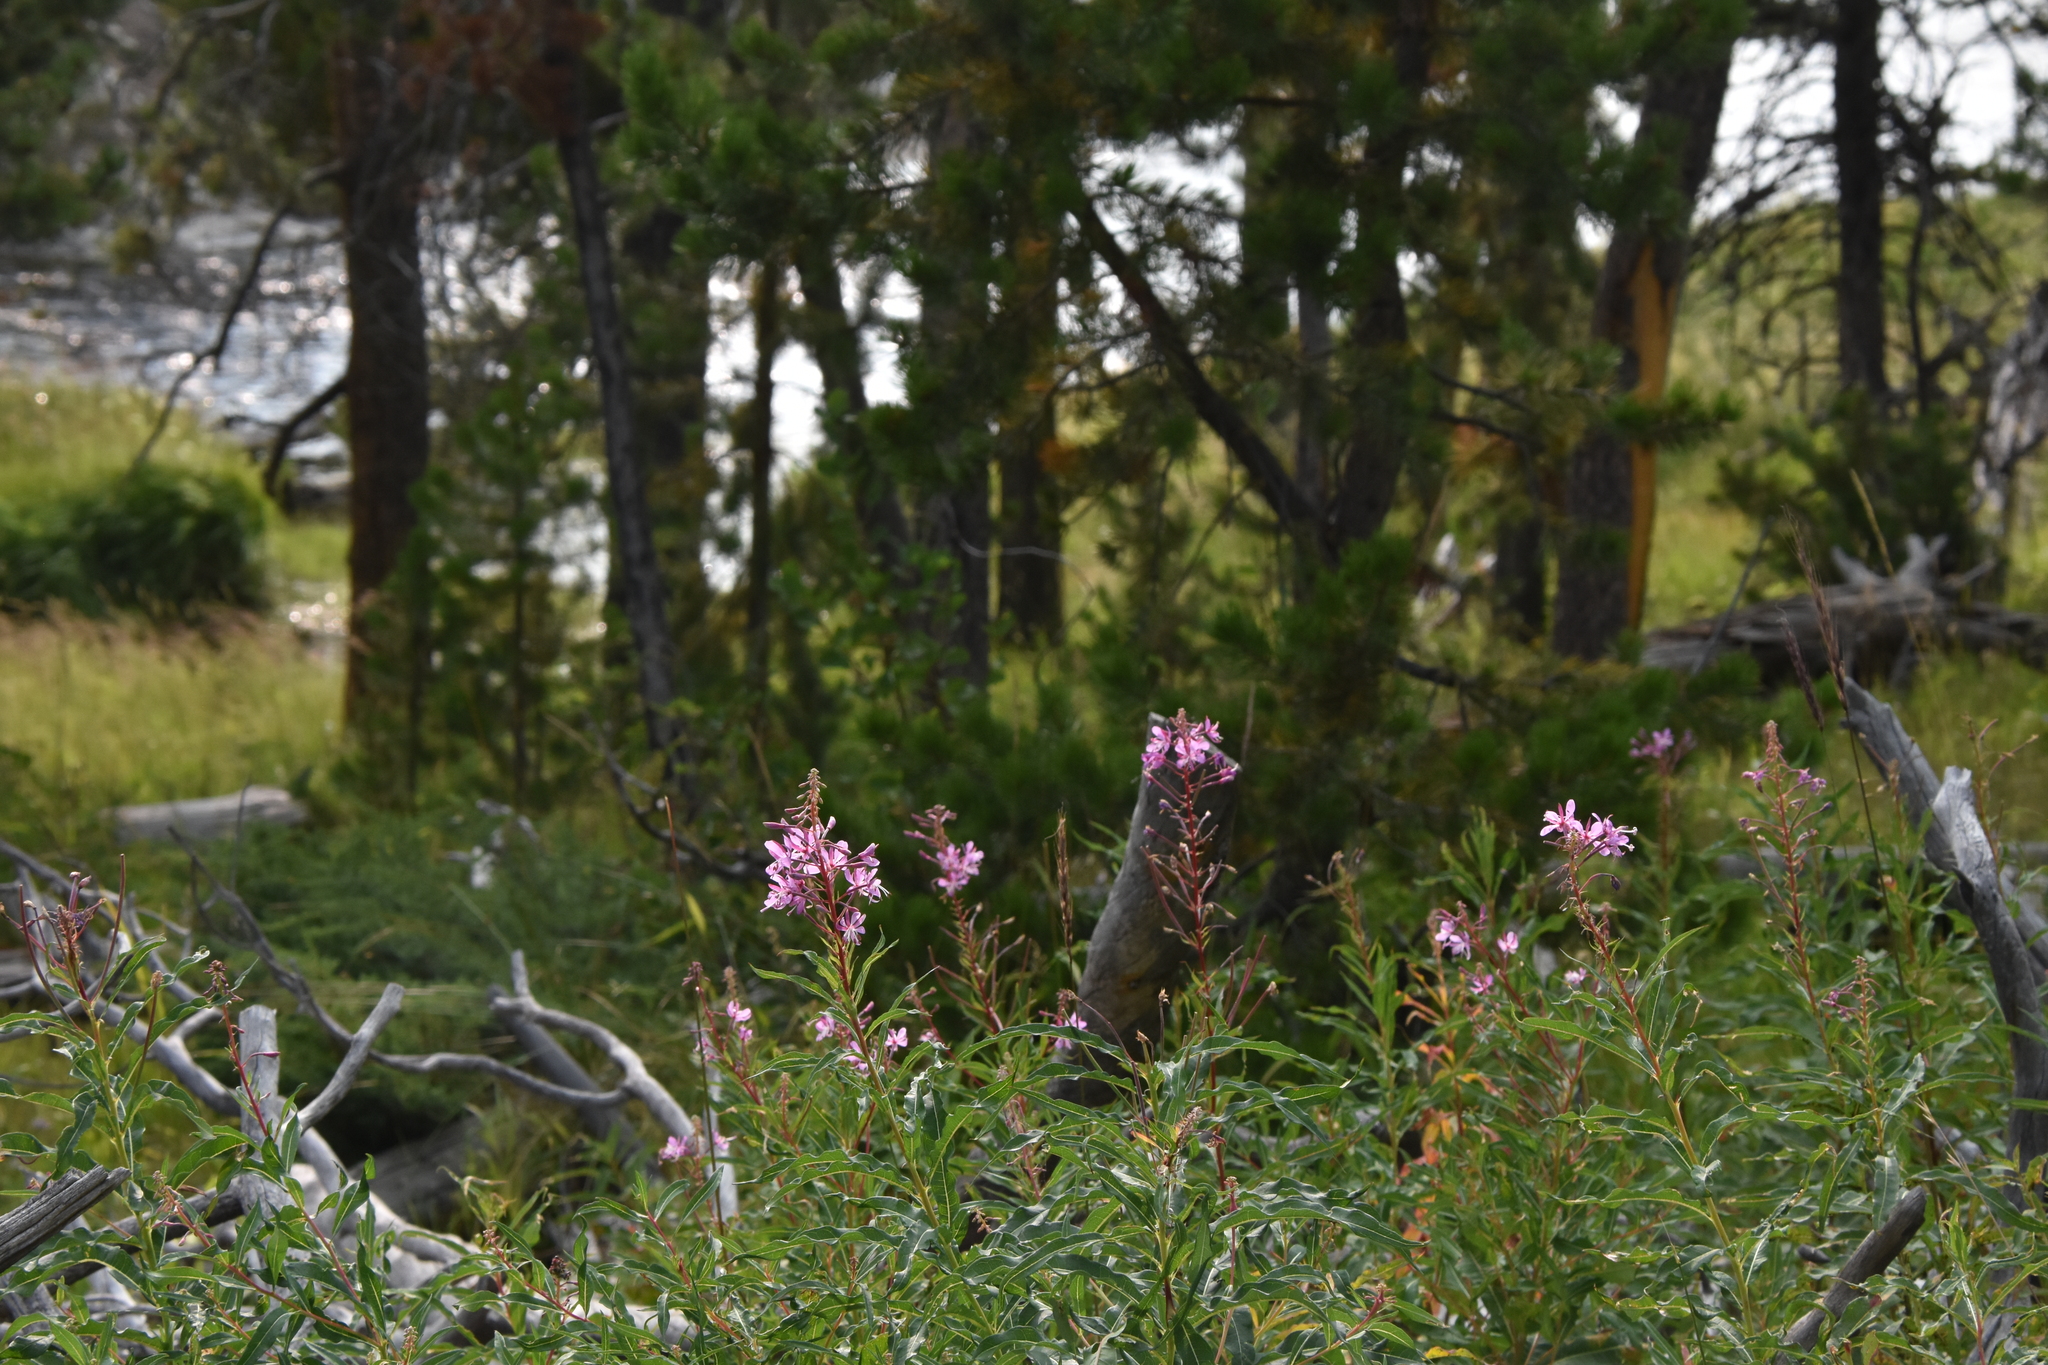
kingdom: Plantae
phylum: Tracheophyta
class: Magnoliopsida
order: Myrtales
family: Onagraceae
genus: Chamaenerion
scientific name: Chamaenerion angustifolium
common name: Fireweed
